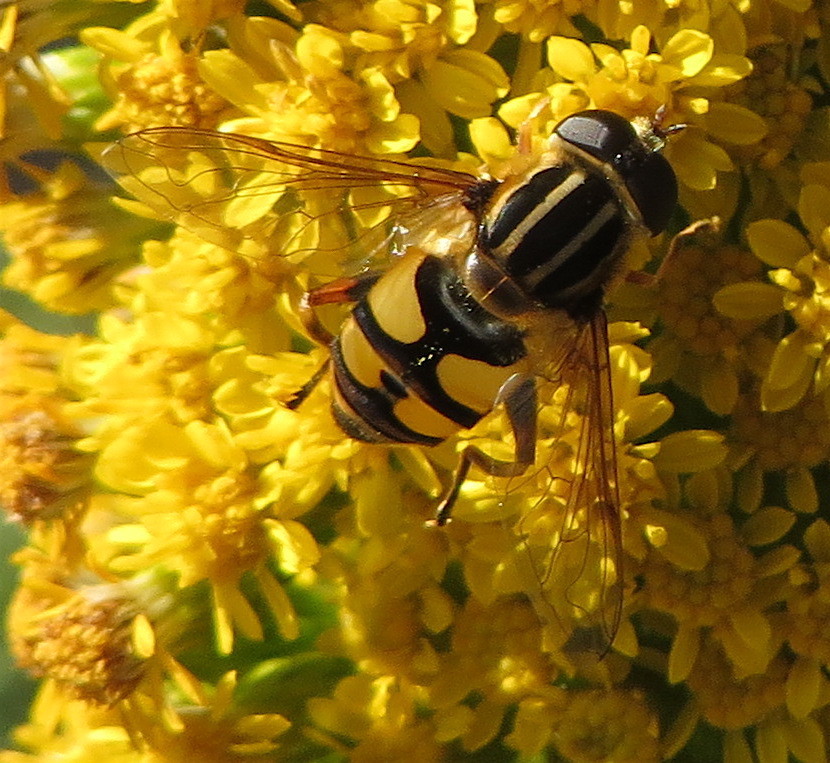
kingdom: Animalia
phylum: Arthropoda
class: Insecta
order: Diptera
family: Syrphidae
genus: Helophilus
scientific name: Helophilus fasciatus
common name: Narrow-headed marsh fly
